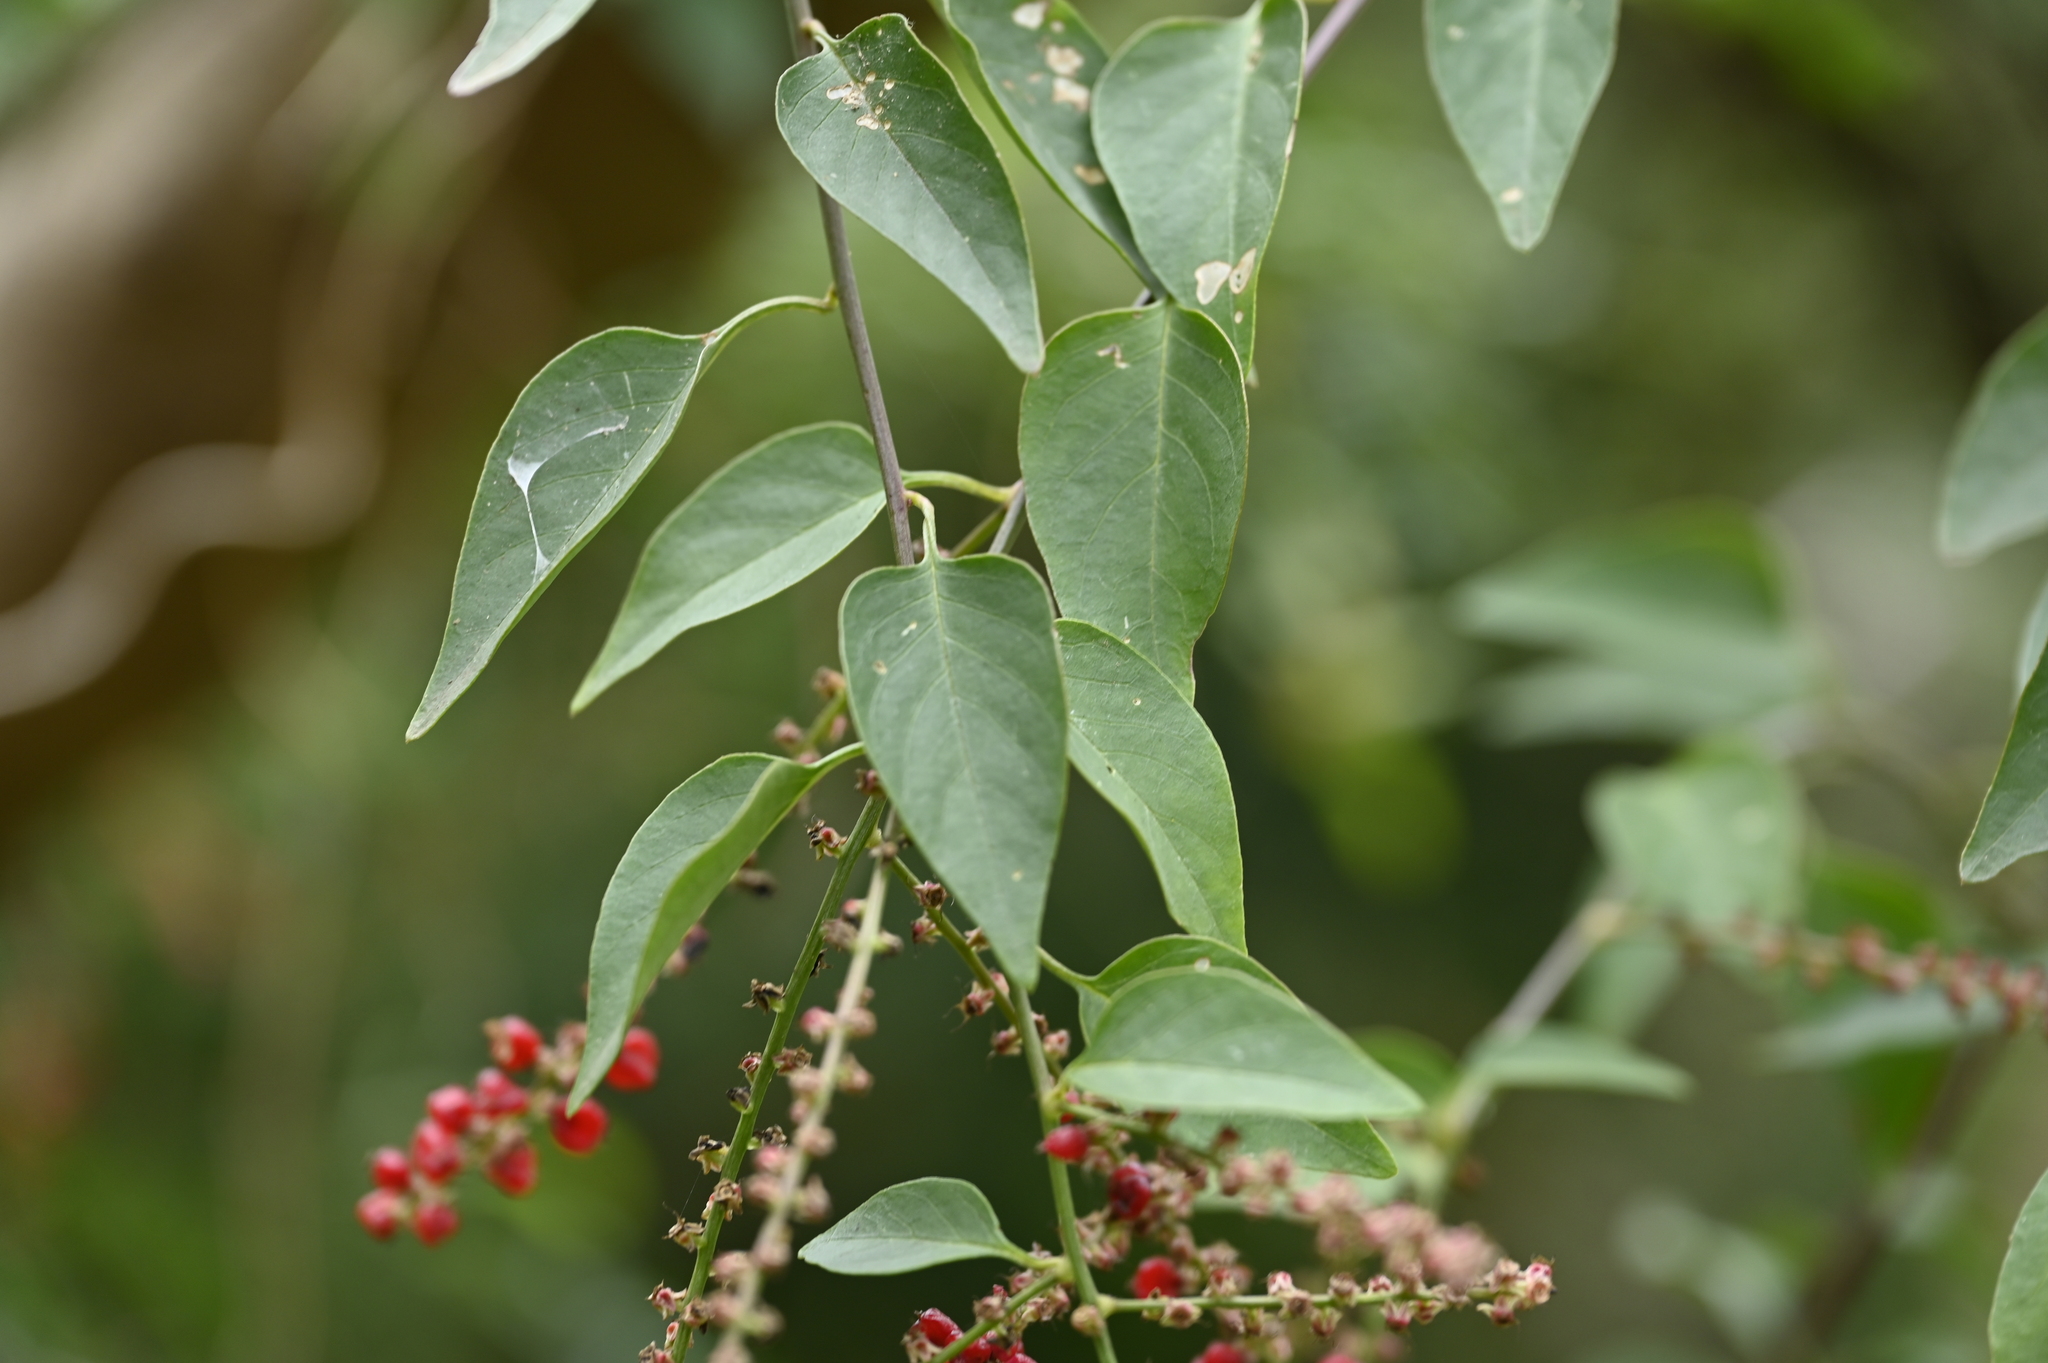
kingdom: Plantae
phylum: Tracheophyta
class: Magnoliopsida
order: Caryophyllales
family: Amaranthaceae
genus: Deeringia
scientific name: Deeringia amaranthoides
